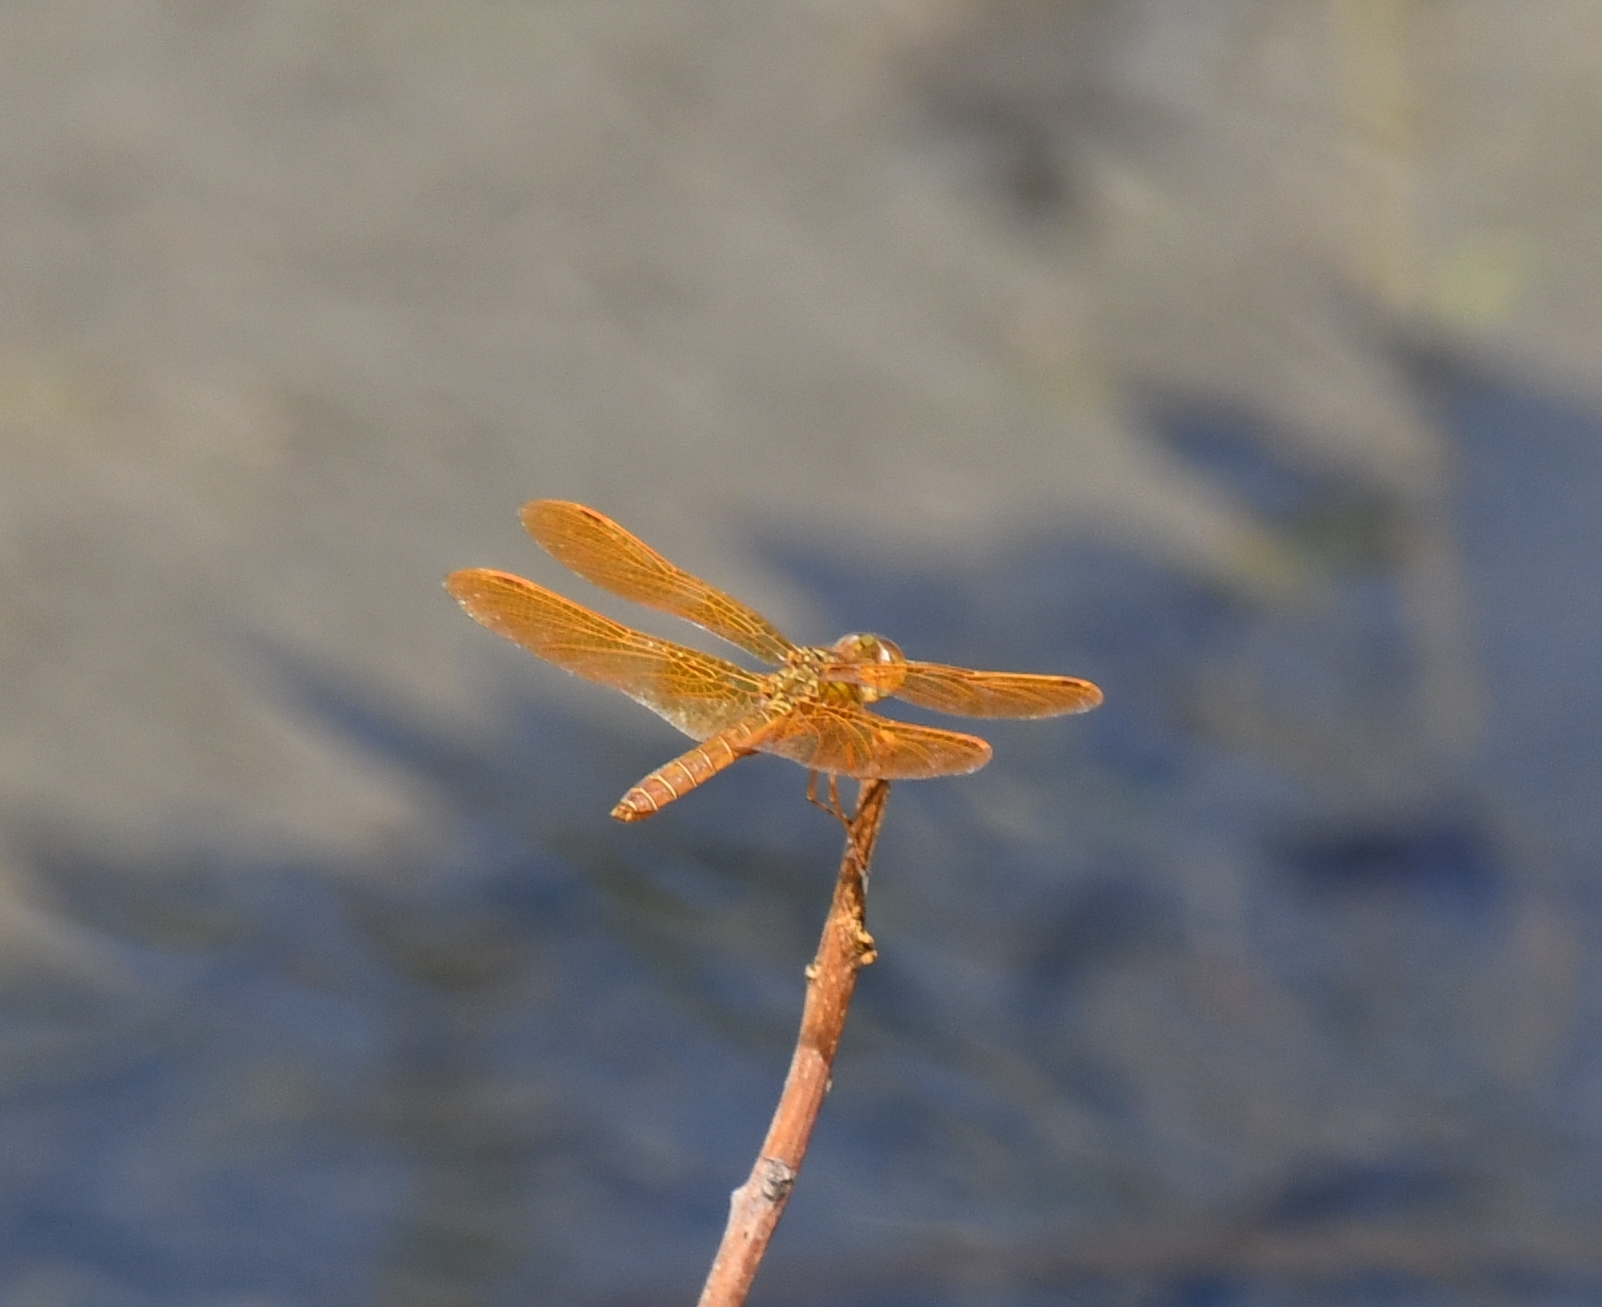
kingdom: Animalia
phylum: Arthropoda
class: Insecta
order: Odonata
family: Libellulidae
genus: Perithemis
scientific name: Perithemis intensa
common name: Mexican amberwing
